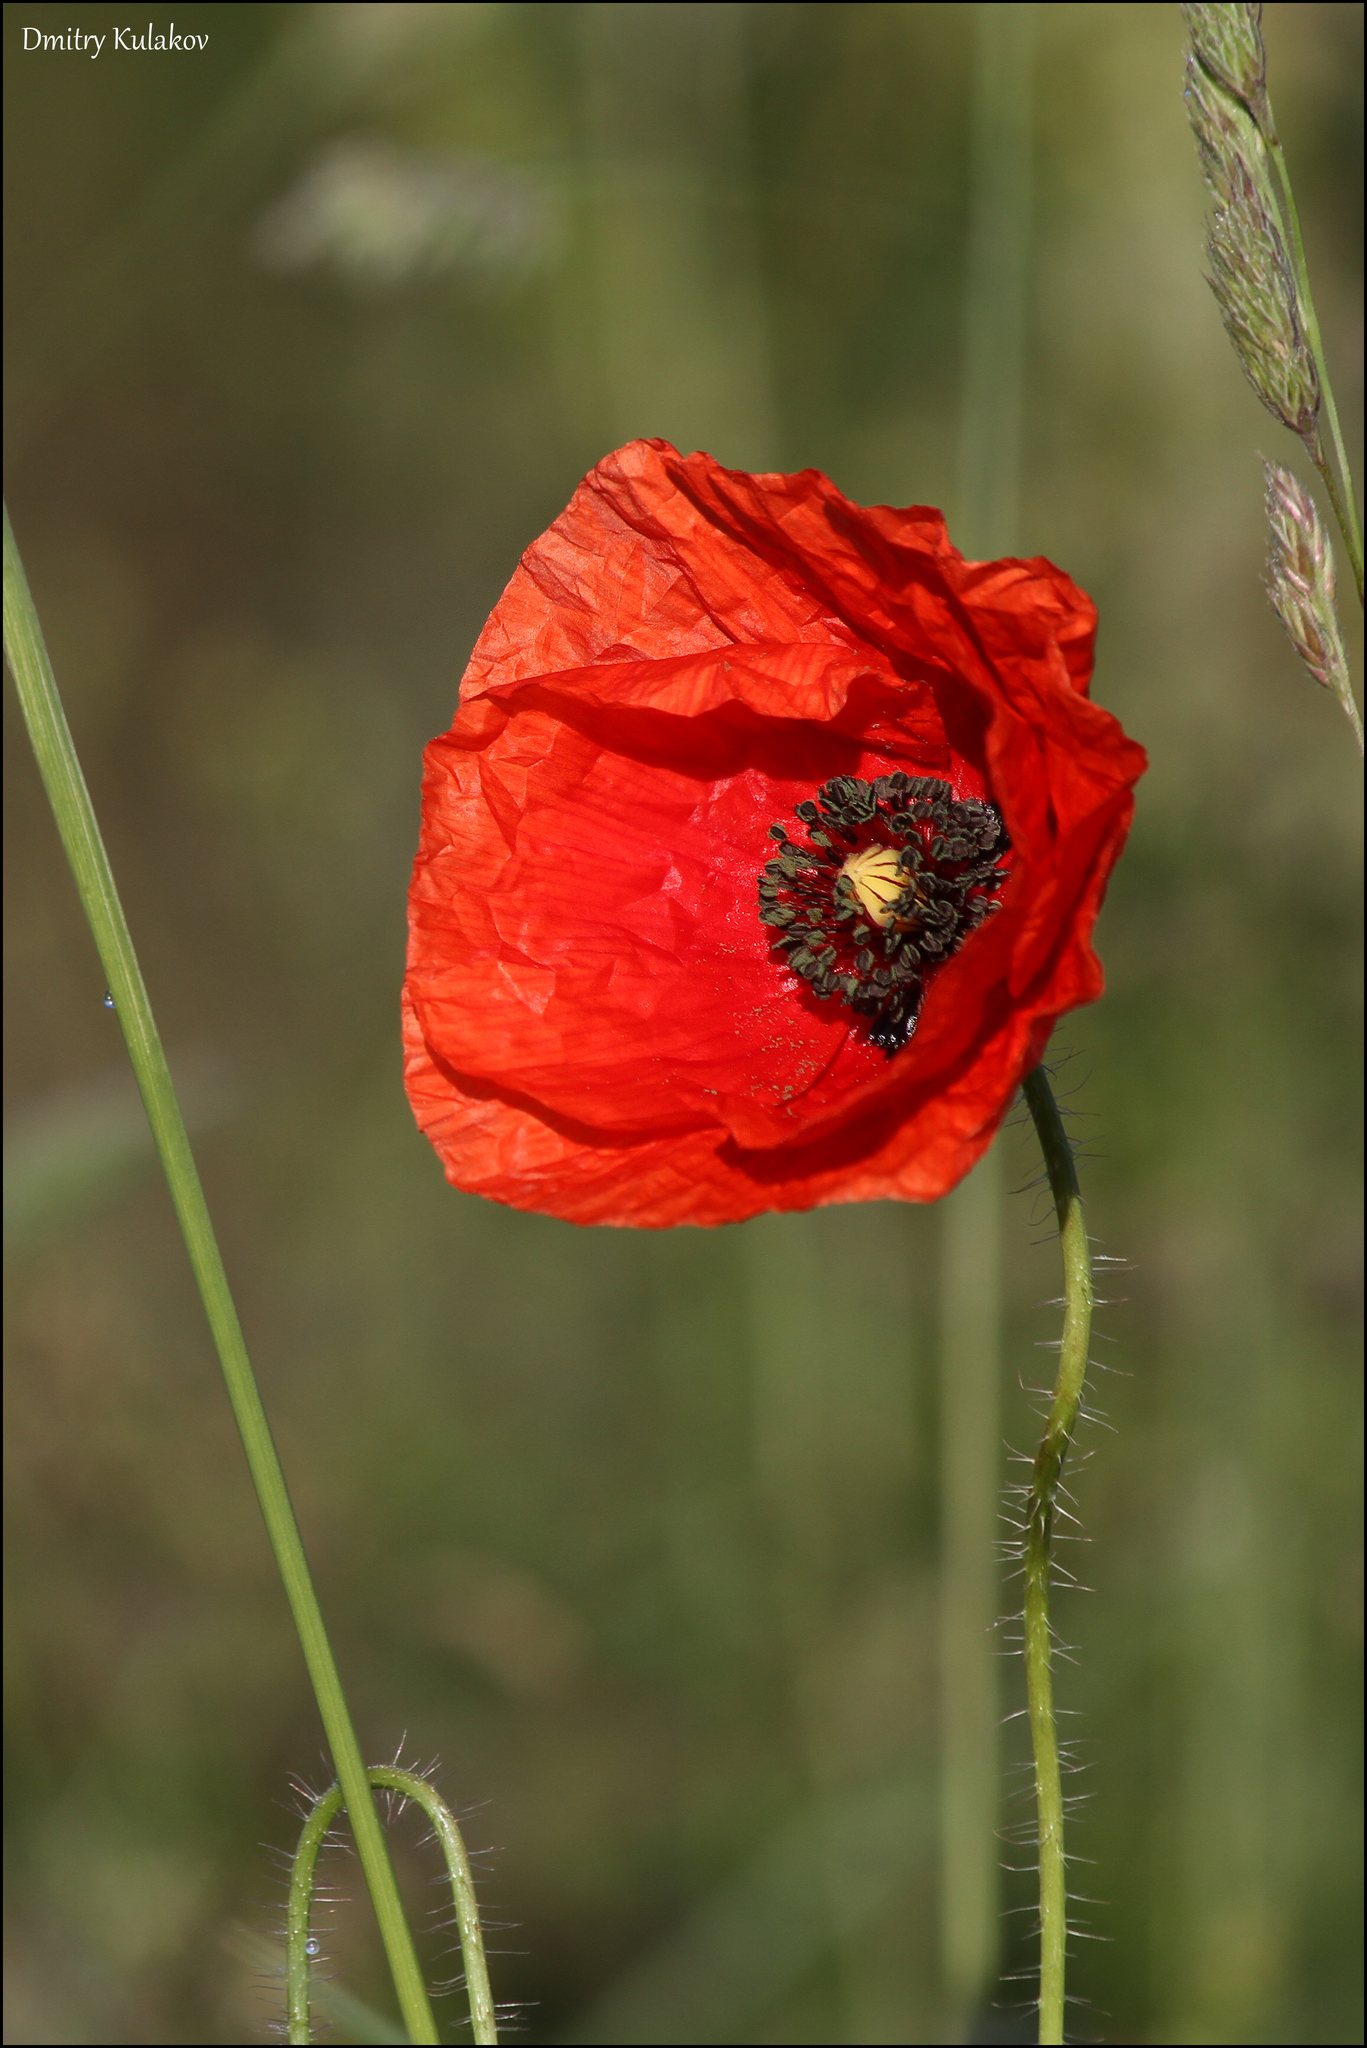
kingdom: Plantae
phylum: Tracheophyta
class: Magnoliopsida
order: Ranunculales
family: Papaveraceae
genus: Papaver
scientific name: Papaver rhoeas
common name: Corn poppy
